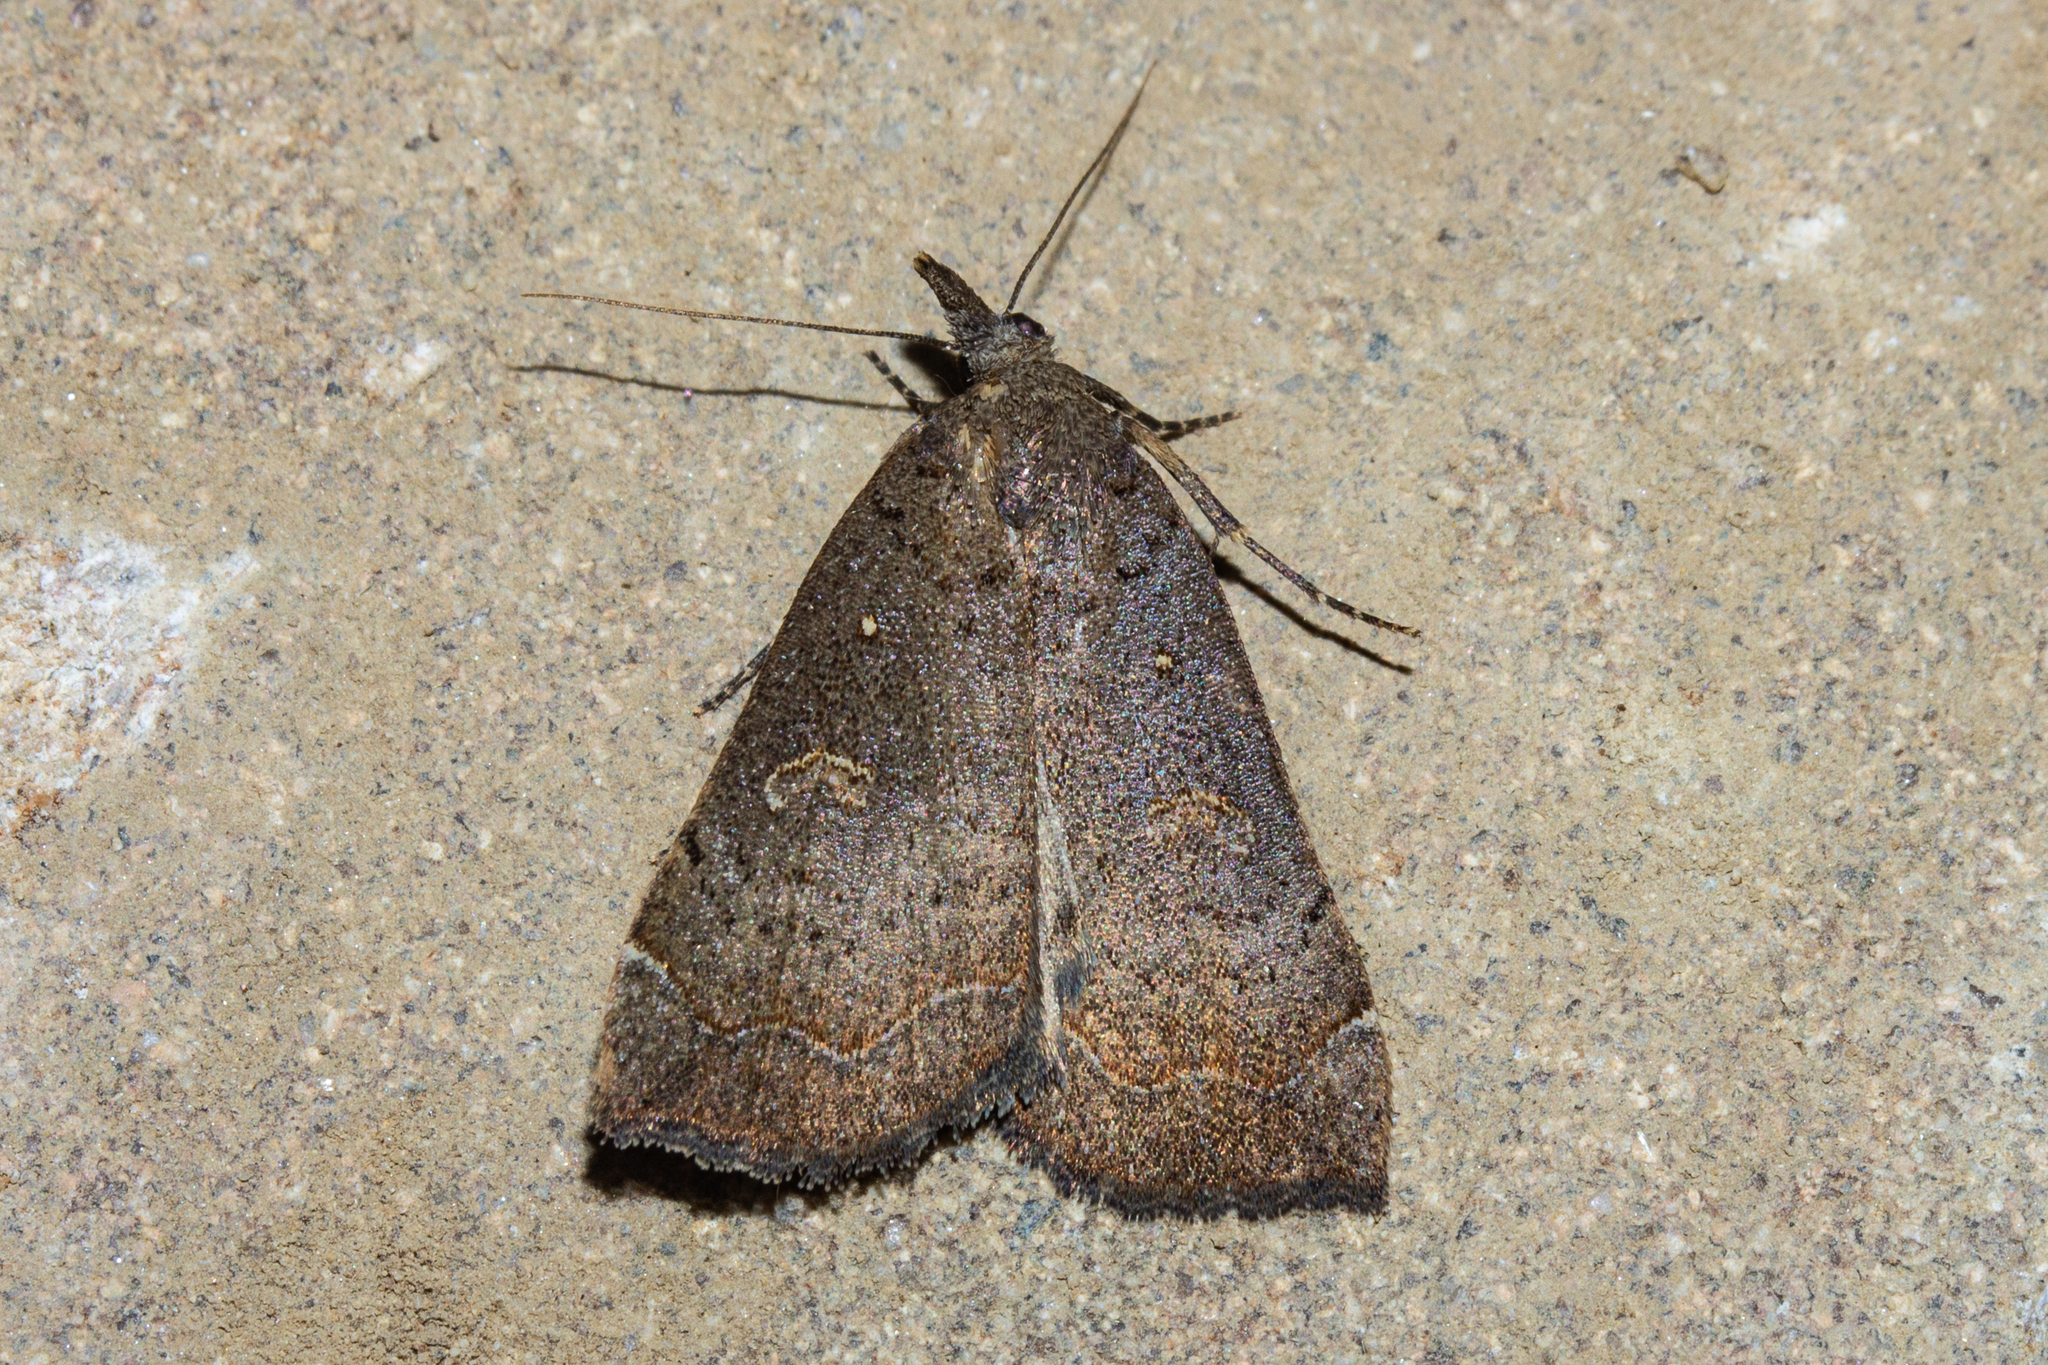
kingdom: Animalia
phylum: Arthropoda
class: Insecta
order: Lepidoptera
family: Erebidae
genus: Rhapsa
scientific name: Rhapsa scotosialis
